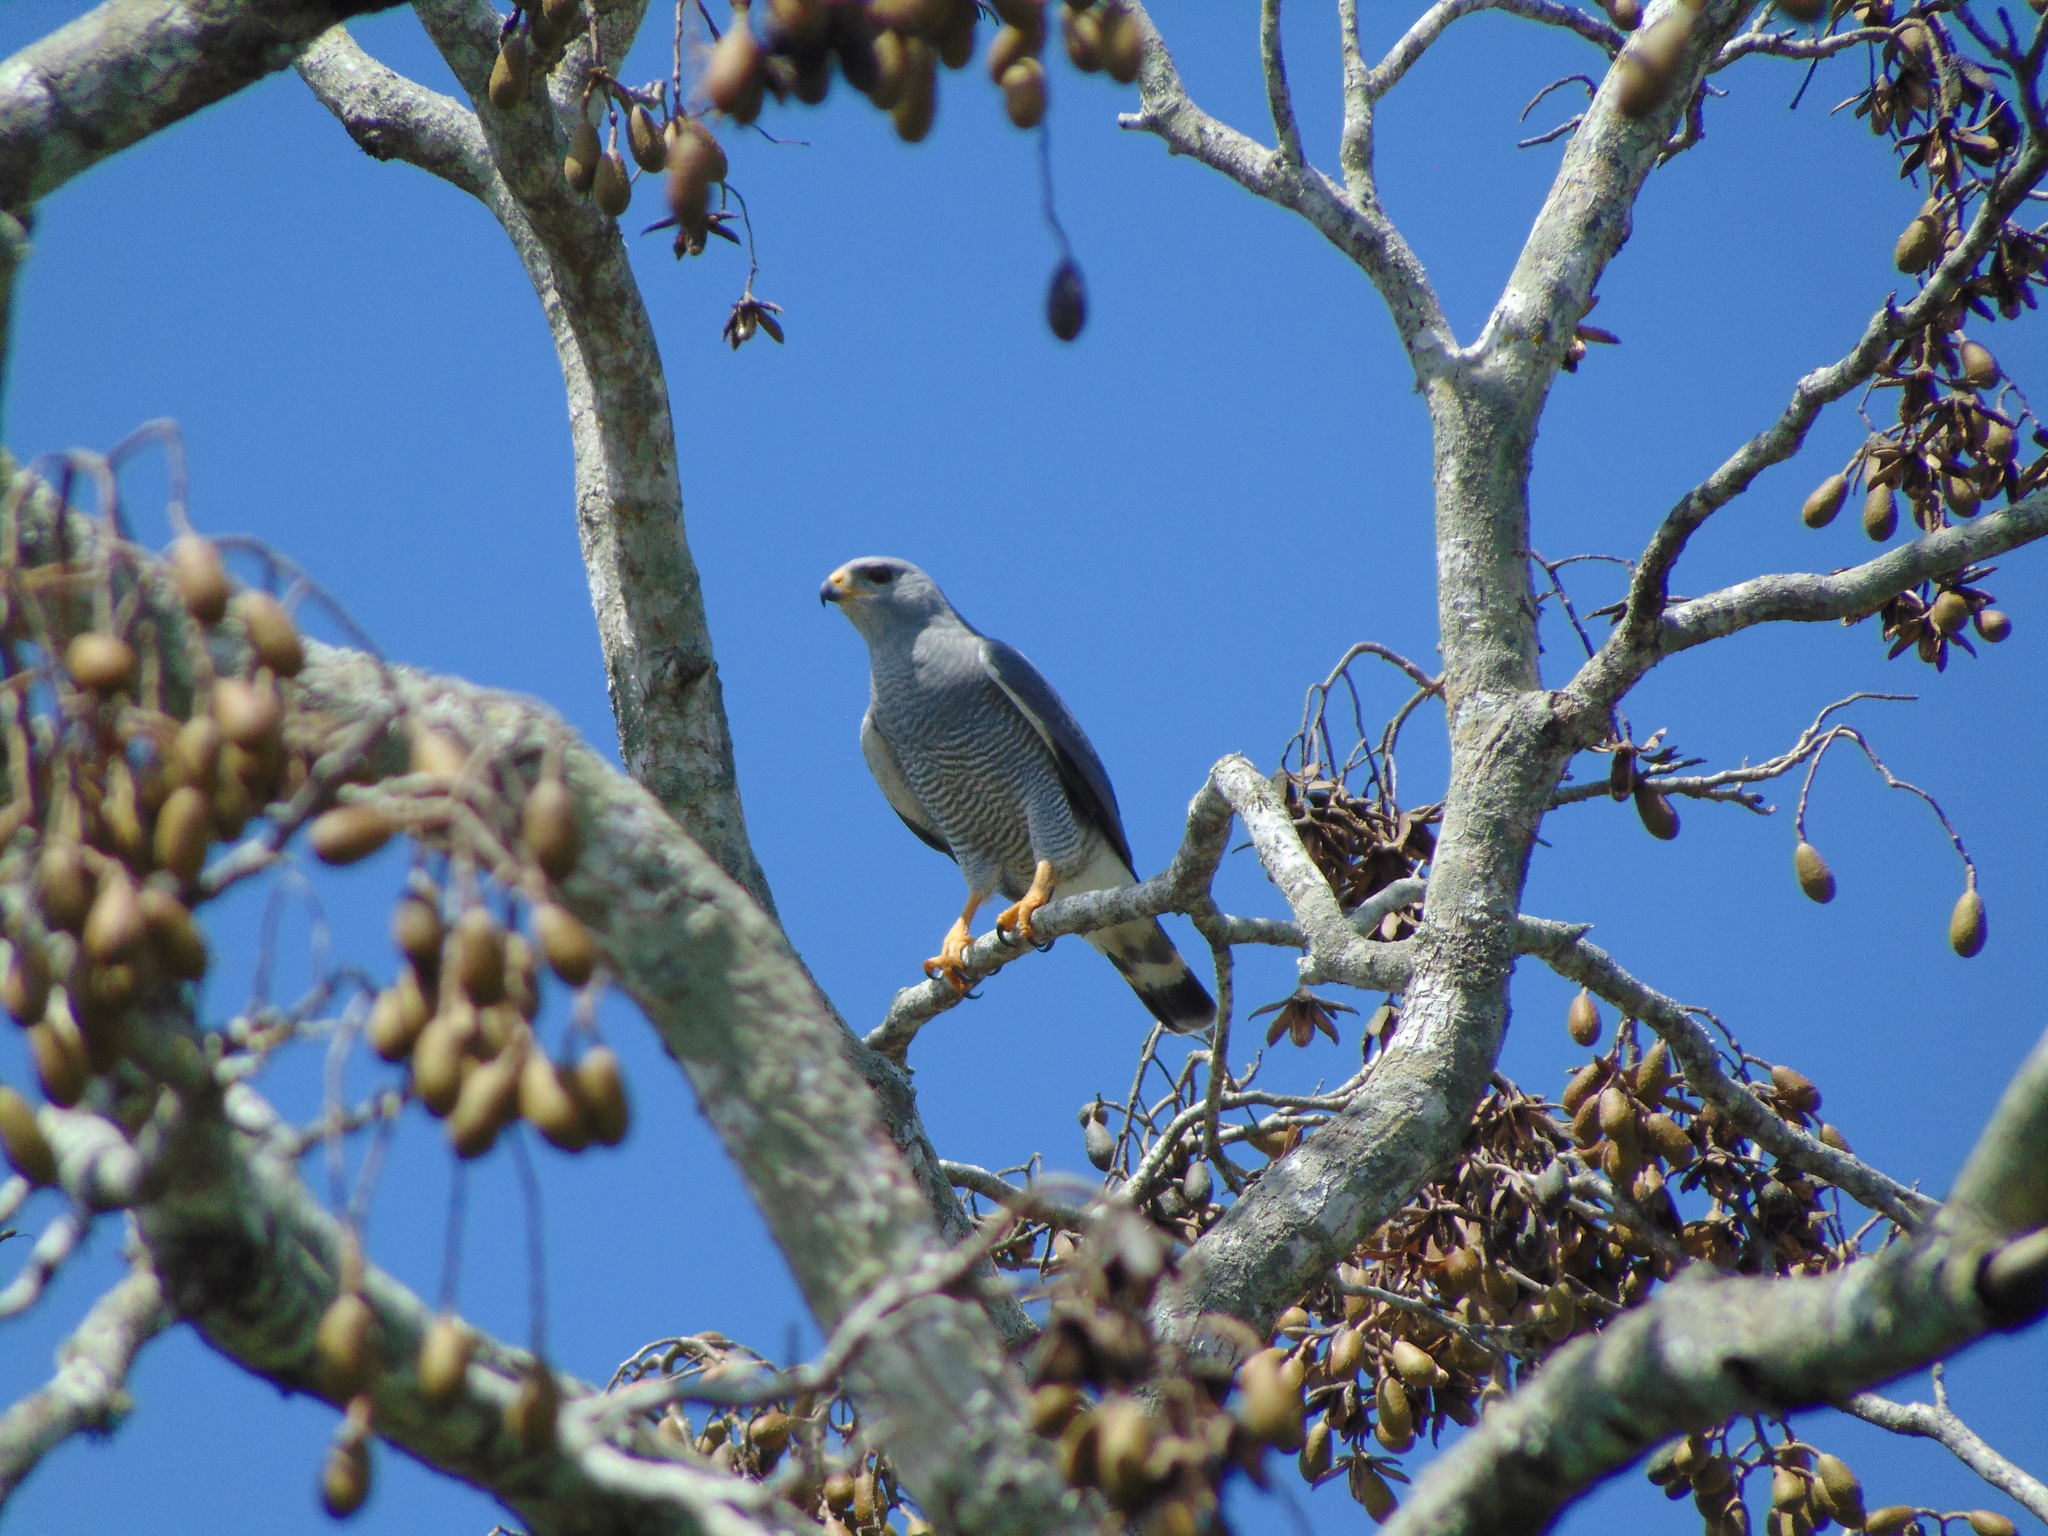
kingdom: Animalia
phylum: Chordata
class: Aves
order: Accipitriformes
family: Accipitridae
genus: Buteo
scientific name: Buteo nitidus
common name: Grey-lined hawk
